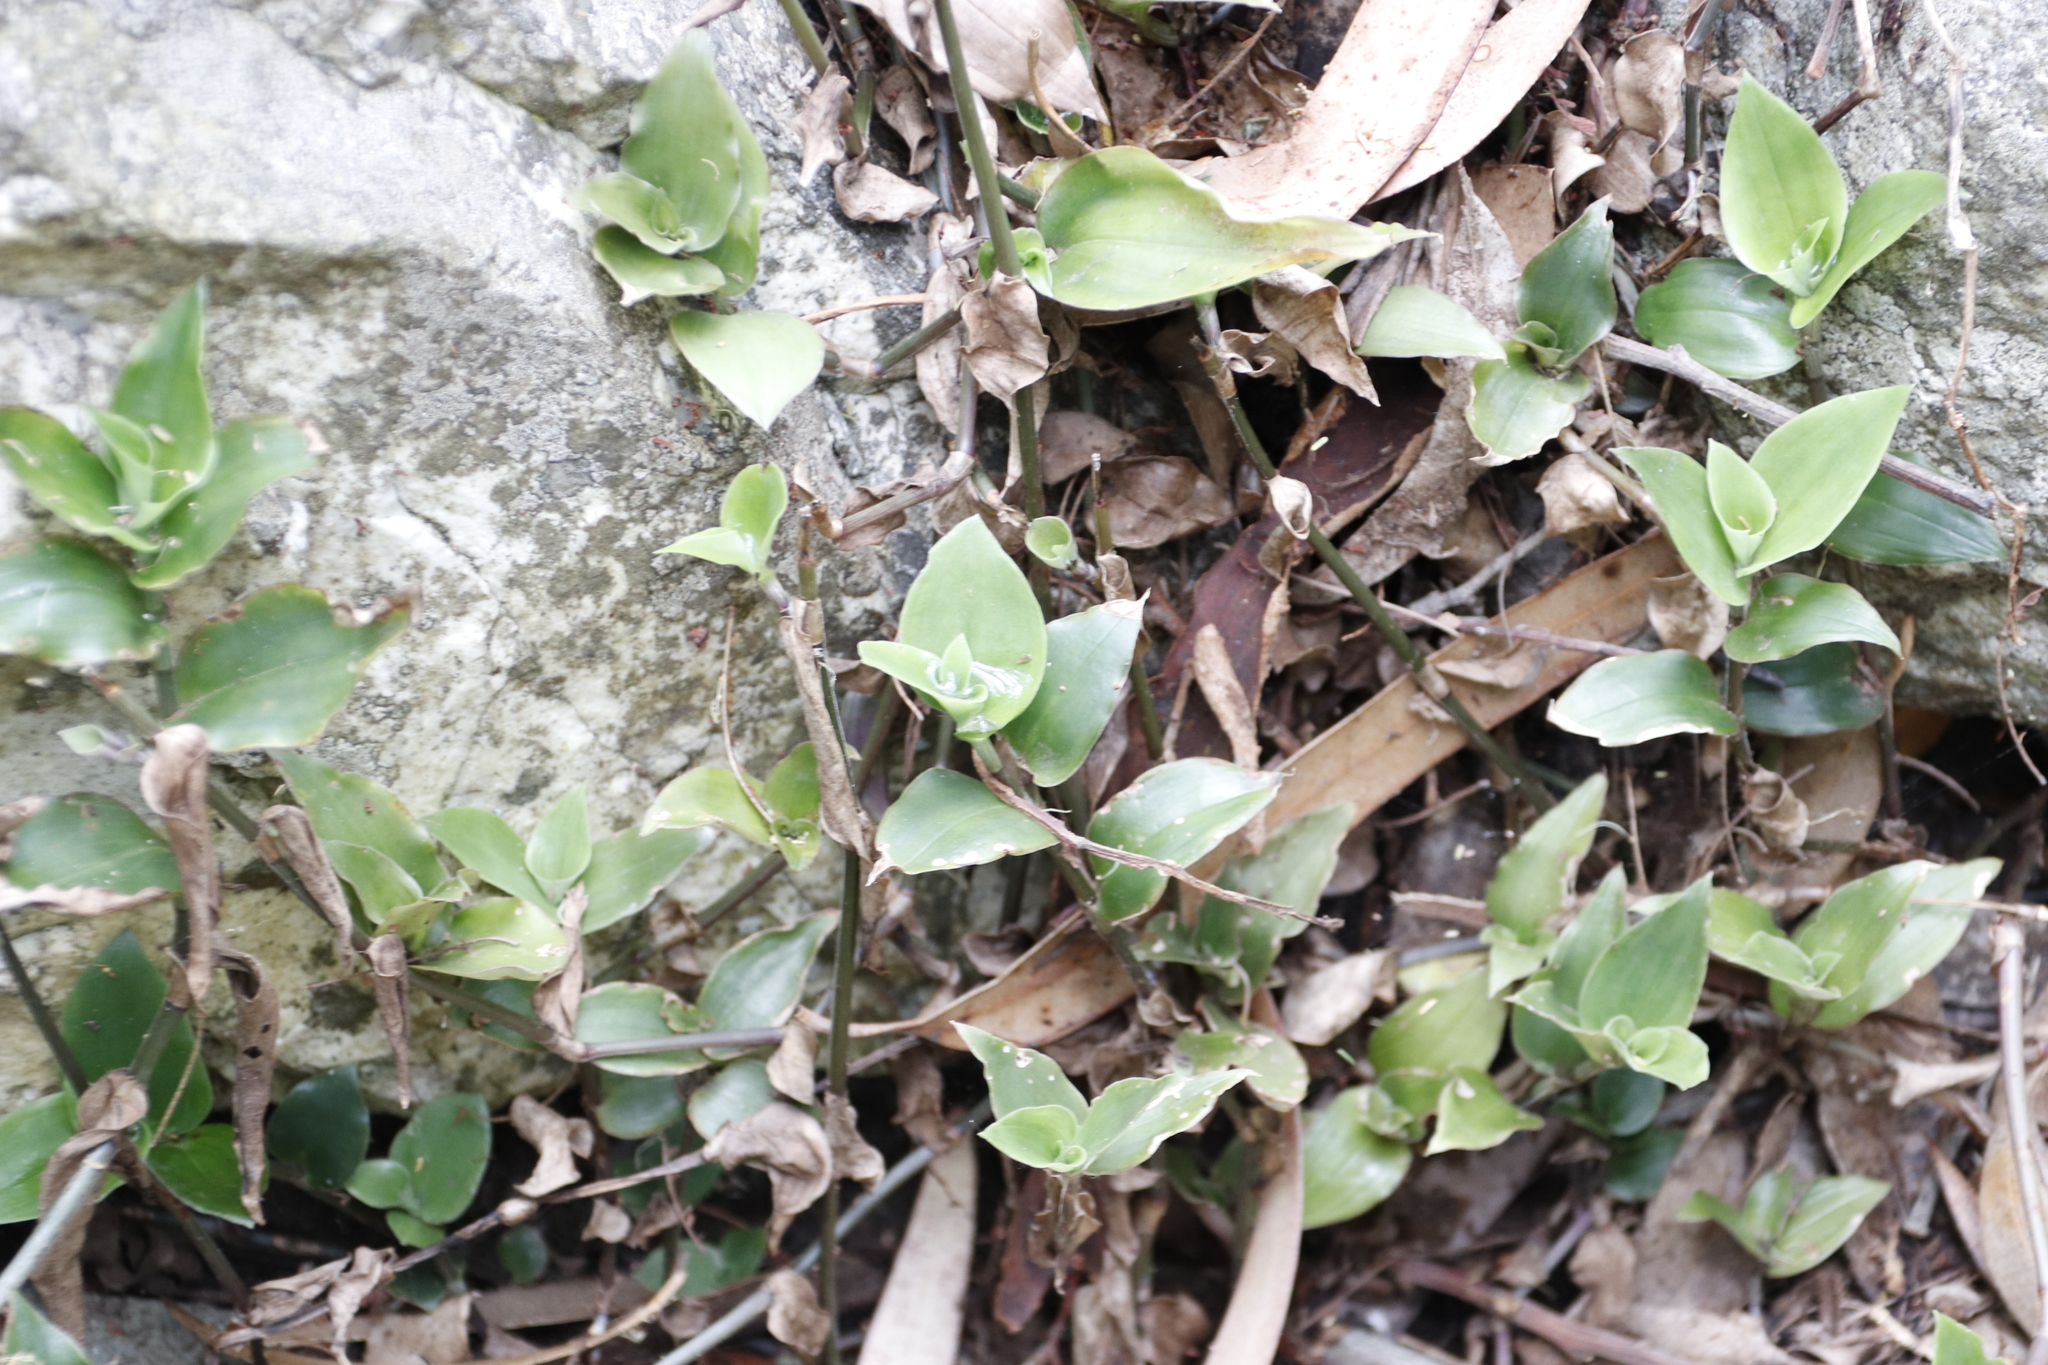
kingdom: Plantae
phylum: Tracheophyta
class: Liliopsida
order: Commelinales
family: Commelinaceae
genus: Tradescantia
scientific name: Tradescantia fluminensis
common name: Wandering-jew
